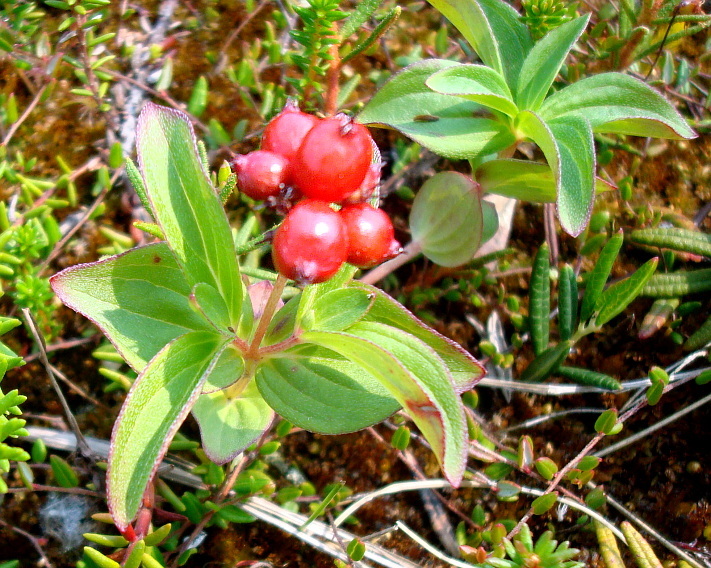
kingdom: Plantae
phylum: Tracheophyta
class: Magnoliopsida
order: Cornales
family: Cornaceae
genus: Cornus
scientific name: Cornus suecica
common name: Dwarf cornel
